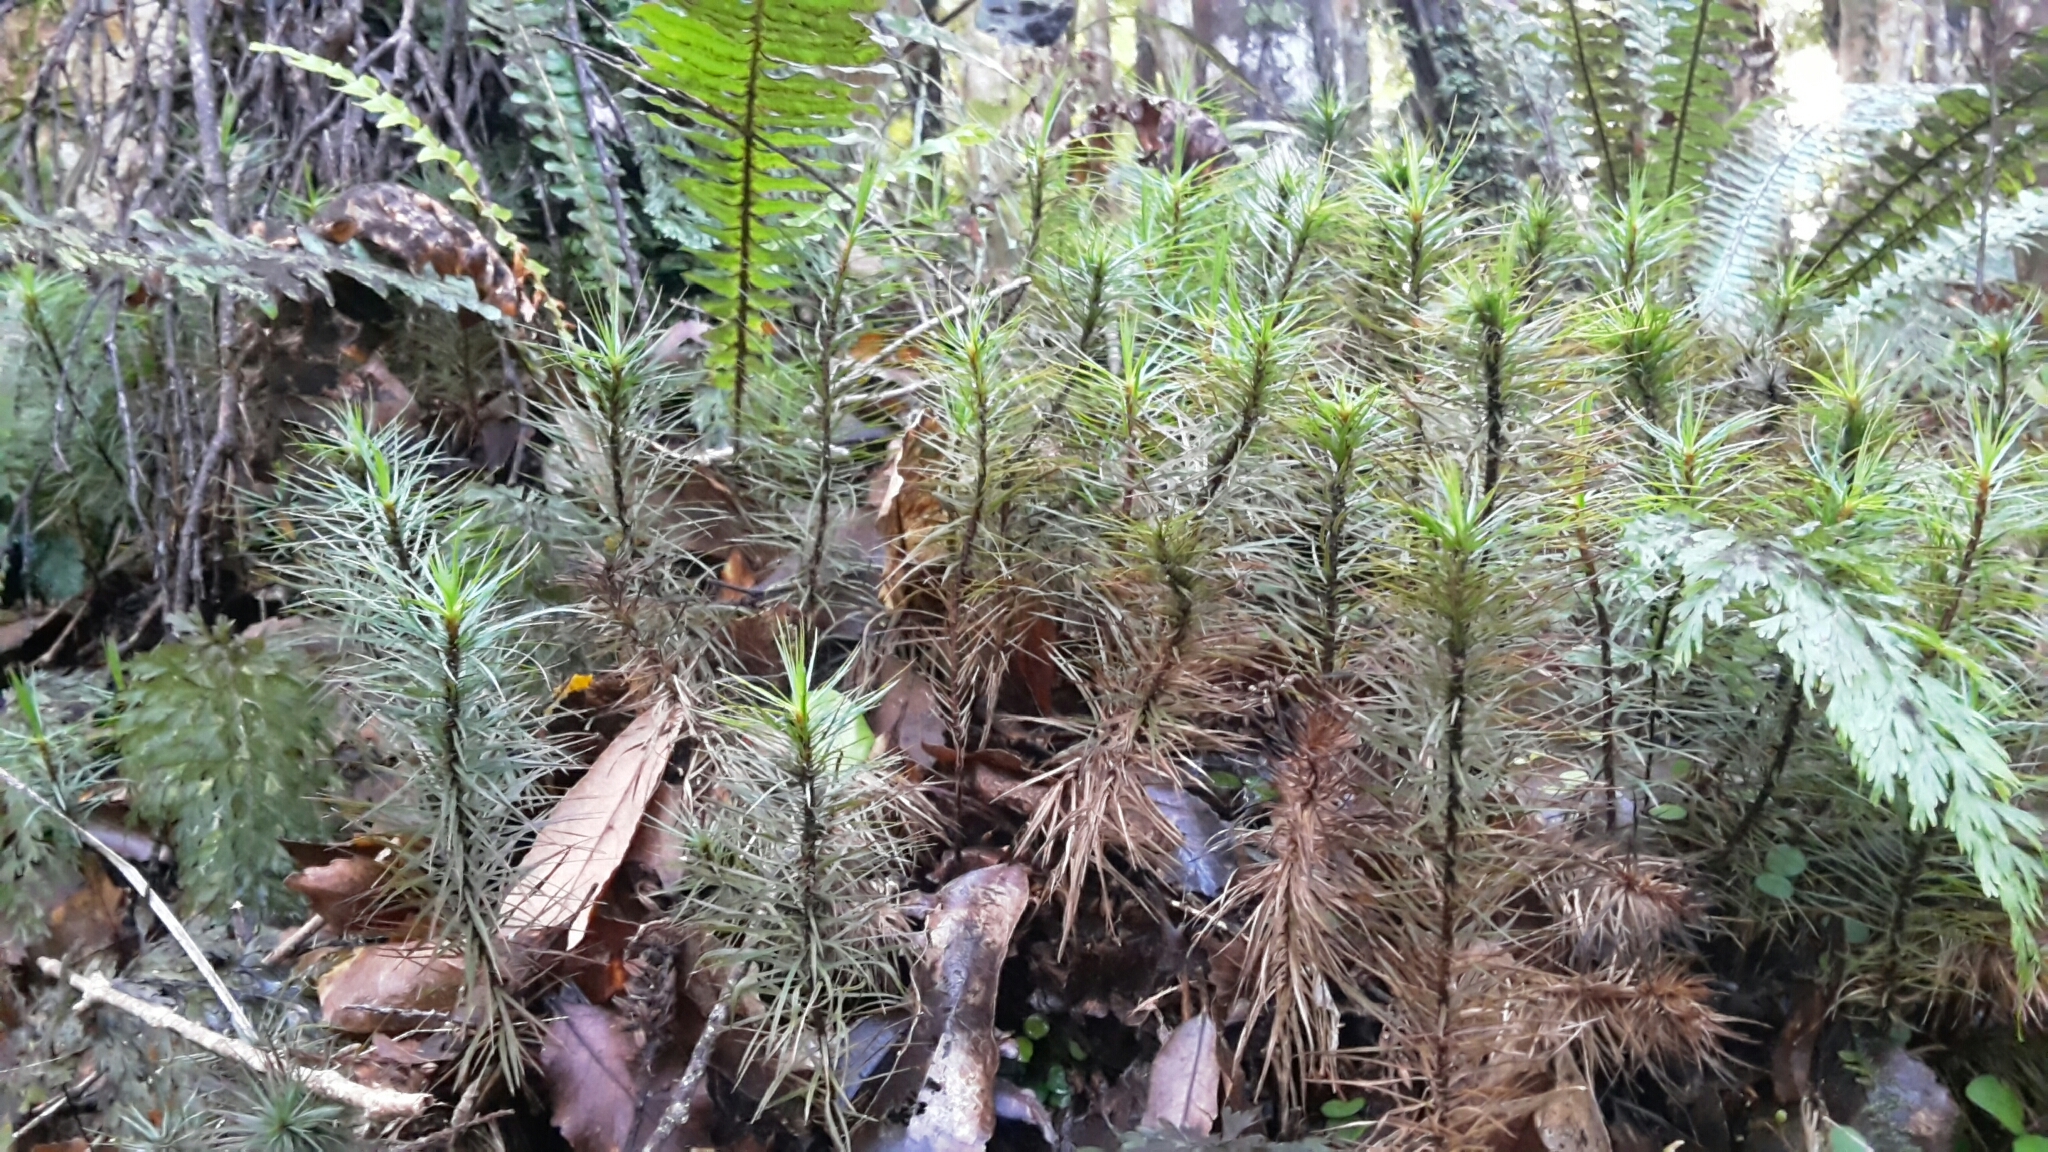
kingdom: Plantae
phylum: Bryophyta
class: Polytrichopsida
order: Polytrichales
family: Polytrichaceae
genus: Dawsonia
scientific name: Dawsonia superba
